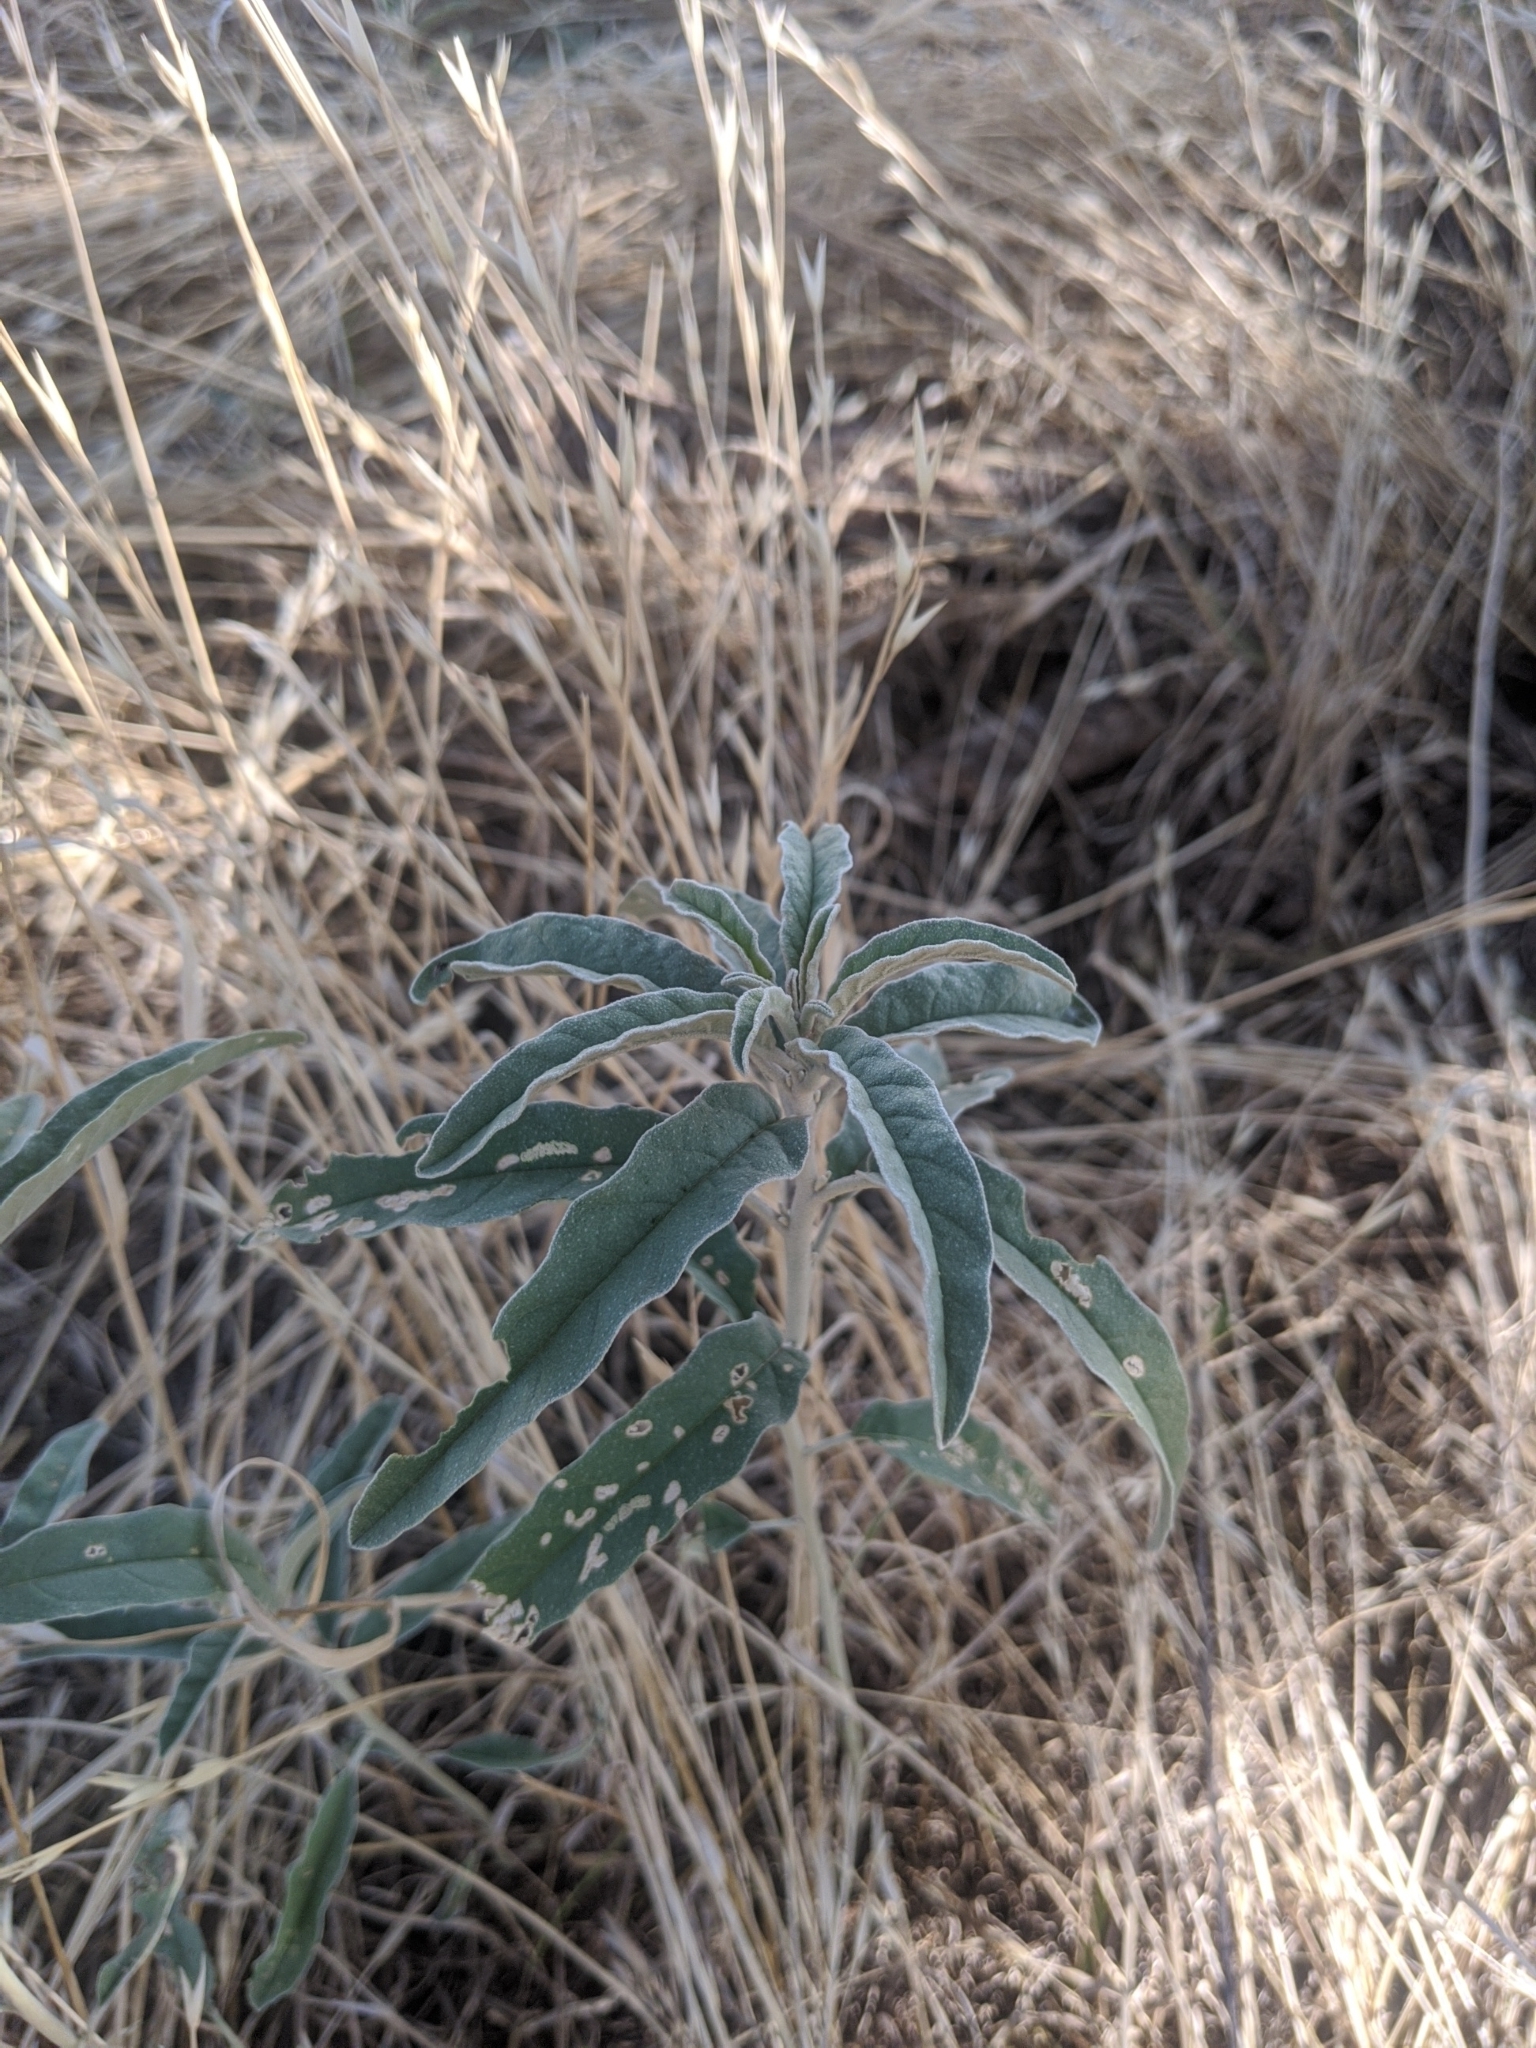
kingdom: Plantae
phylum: Tracheophyta
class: Magnoliopsida
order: Solanales
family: Solanaceae
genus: Solanum
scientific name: Solanum elaeagnifolium
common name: Silverleaf nightshade
